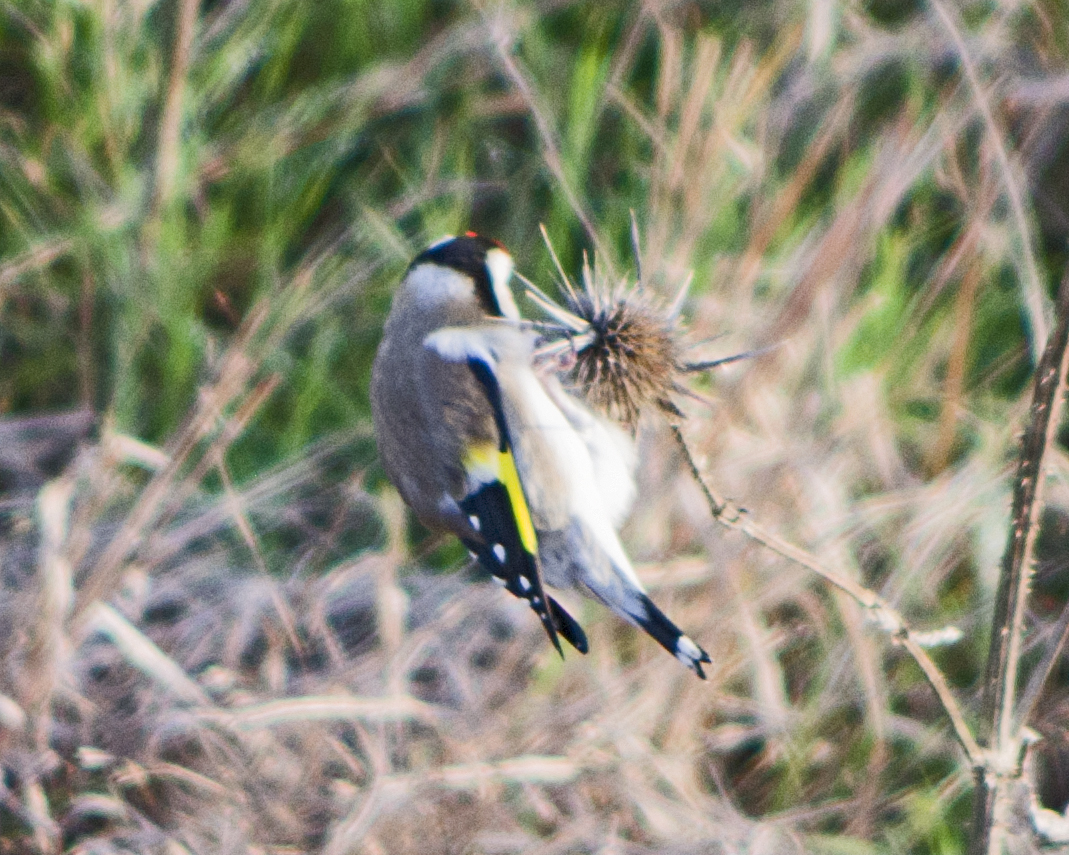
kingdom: Animalia
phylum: Chordata
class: Aves
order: Passeriformes
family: Fringillidae
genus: Carduelis
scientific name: Carduelis carduelis
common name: European goldfinch
